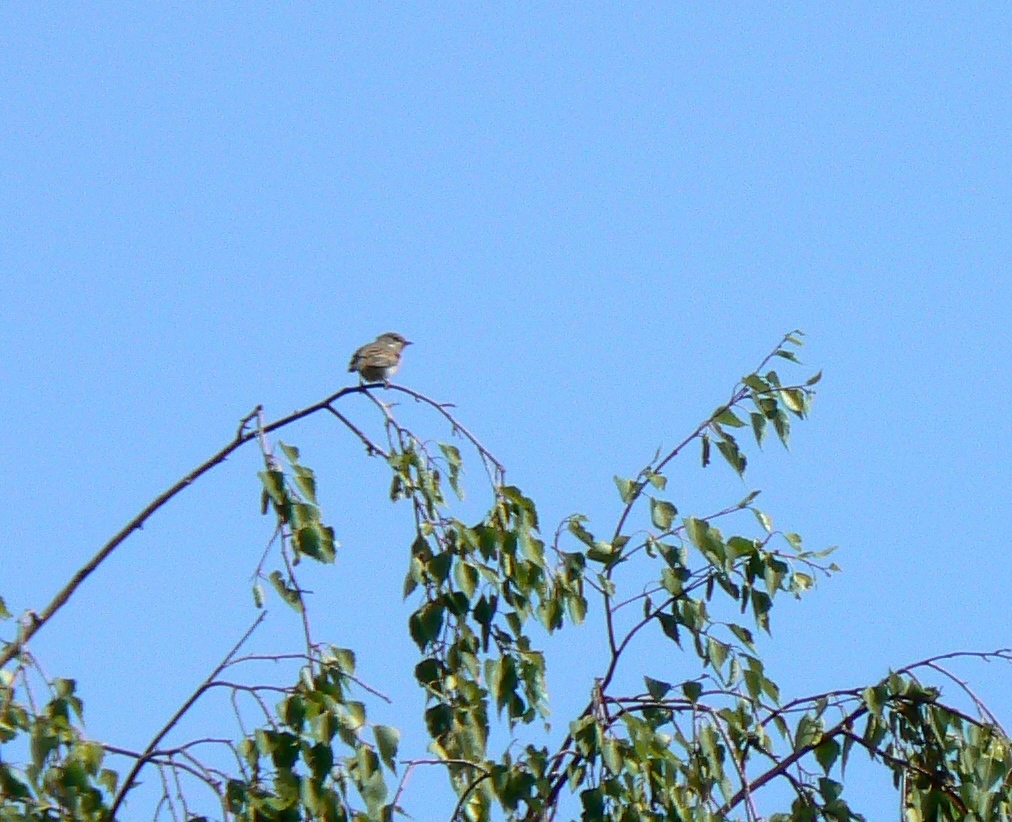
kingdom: Animalia
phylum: Chordata
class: Aves
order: Passeriformes
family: Sylviidae
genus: Sylvia
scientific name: Sylvia communis
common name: Common whitethroat
